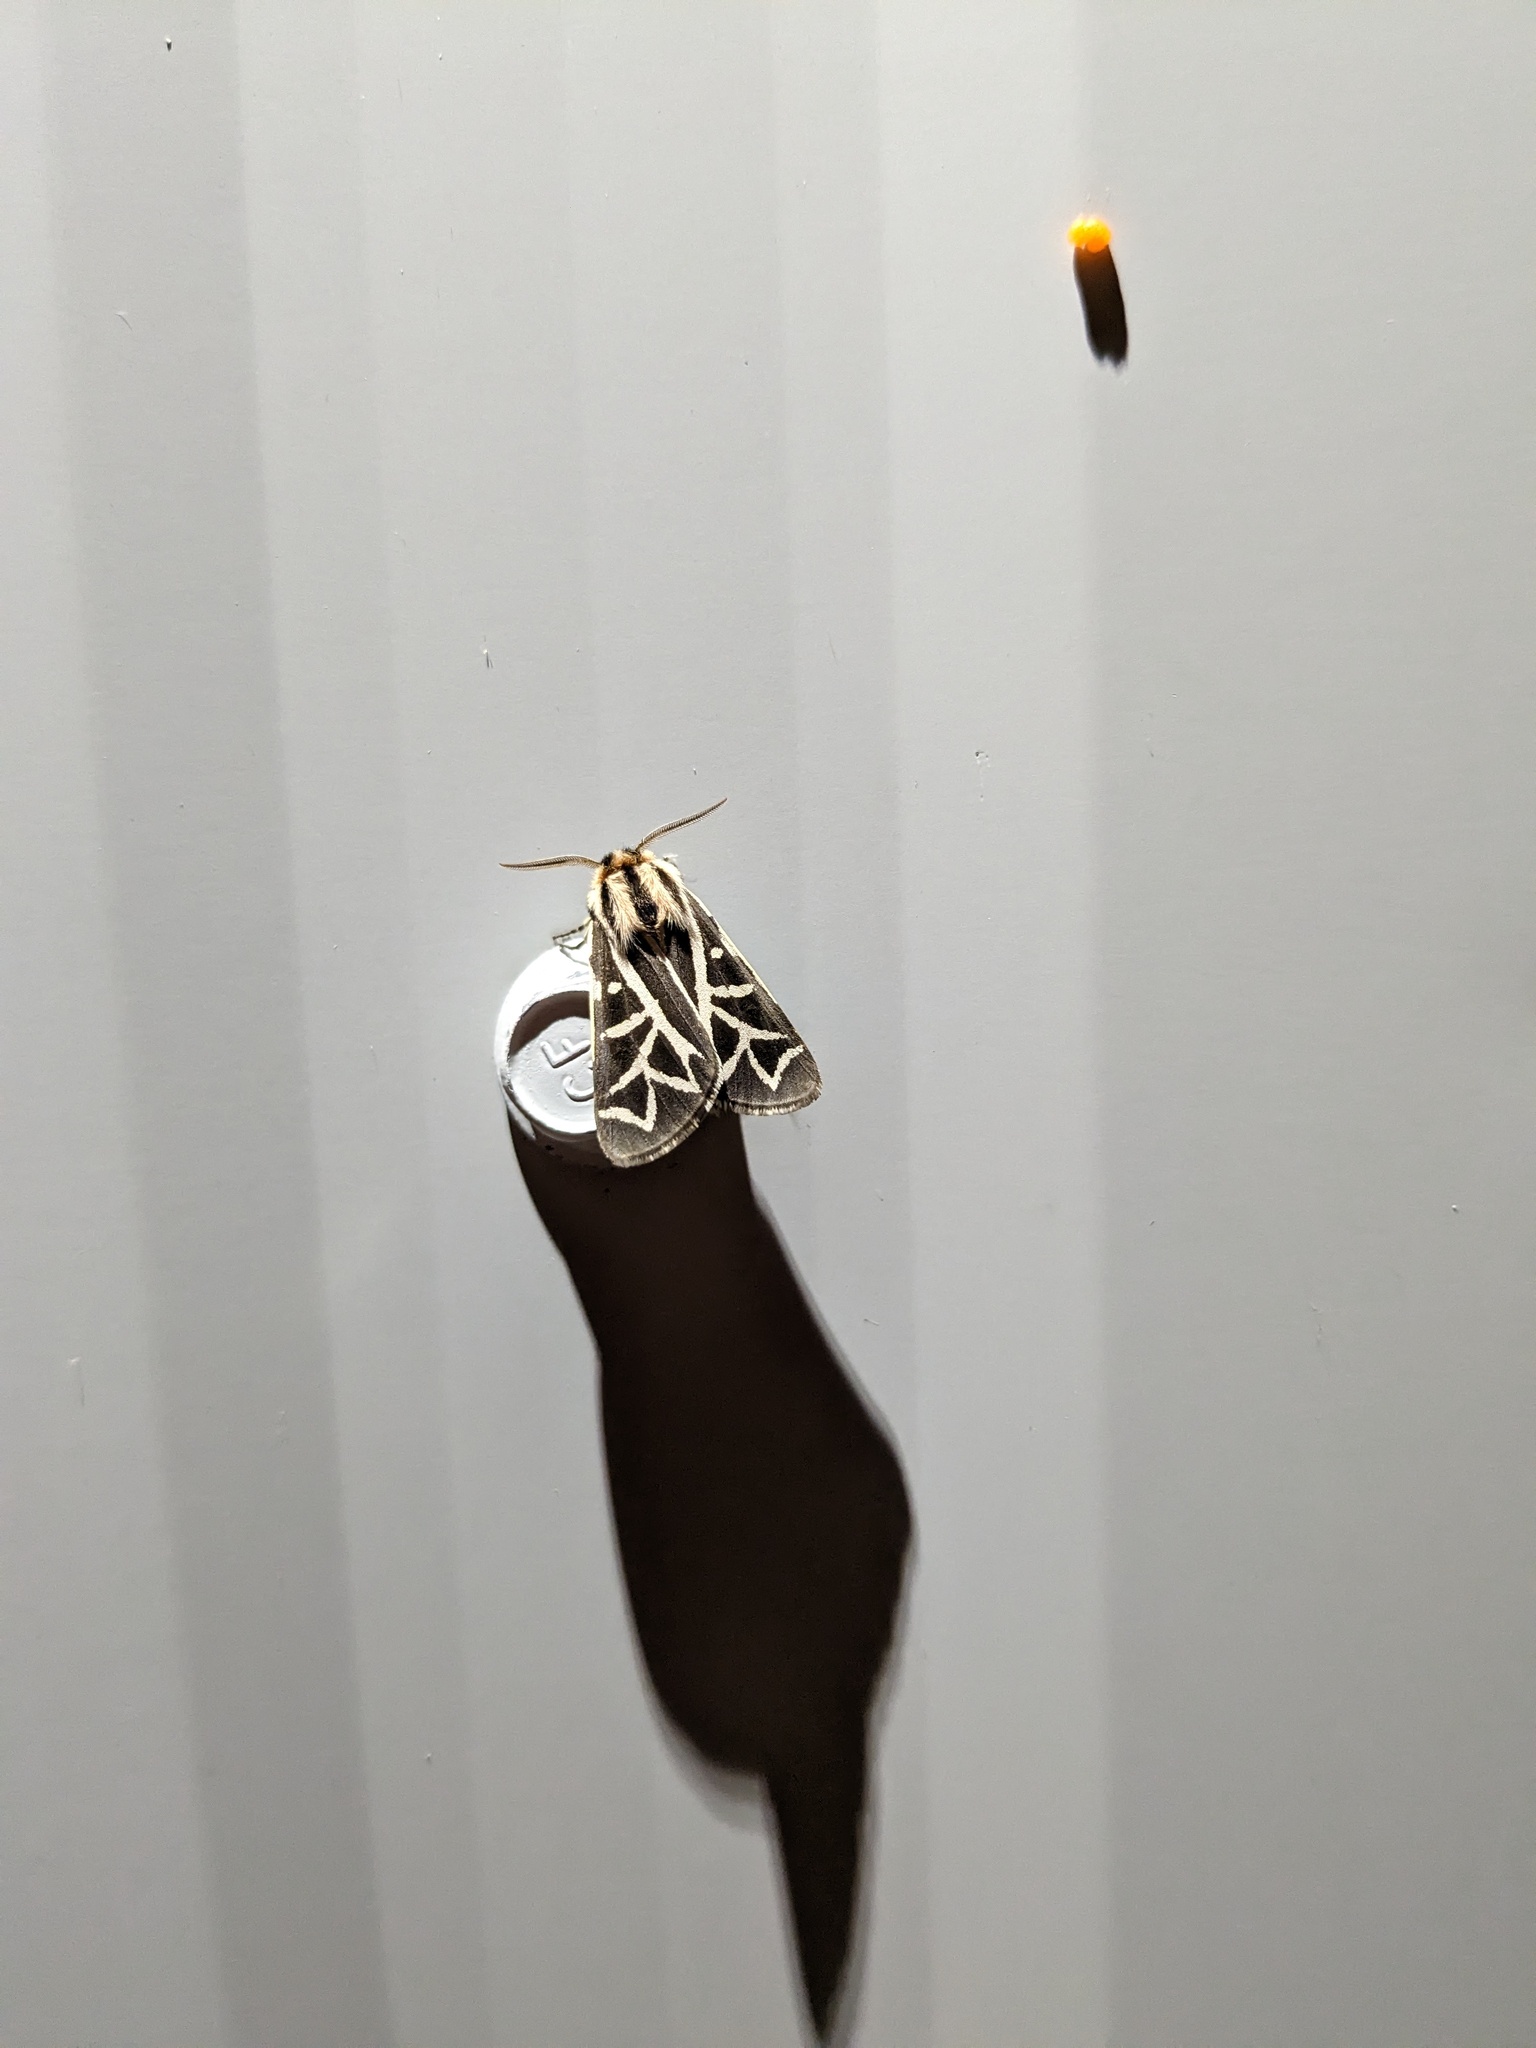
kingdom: Animalia
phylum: Arthropoda
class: Insecta
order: Lepidoptera
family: Erebidae
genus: Apantesis
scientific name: Apantesis
